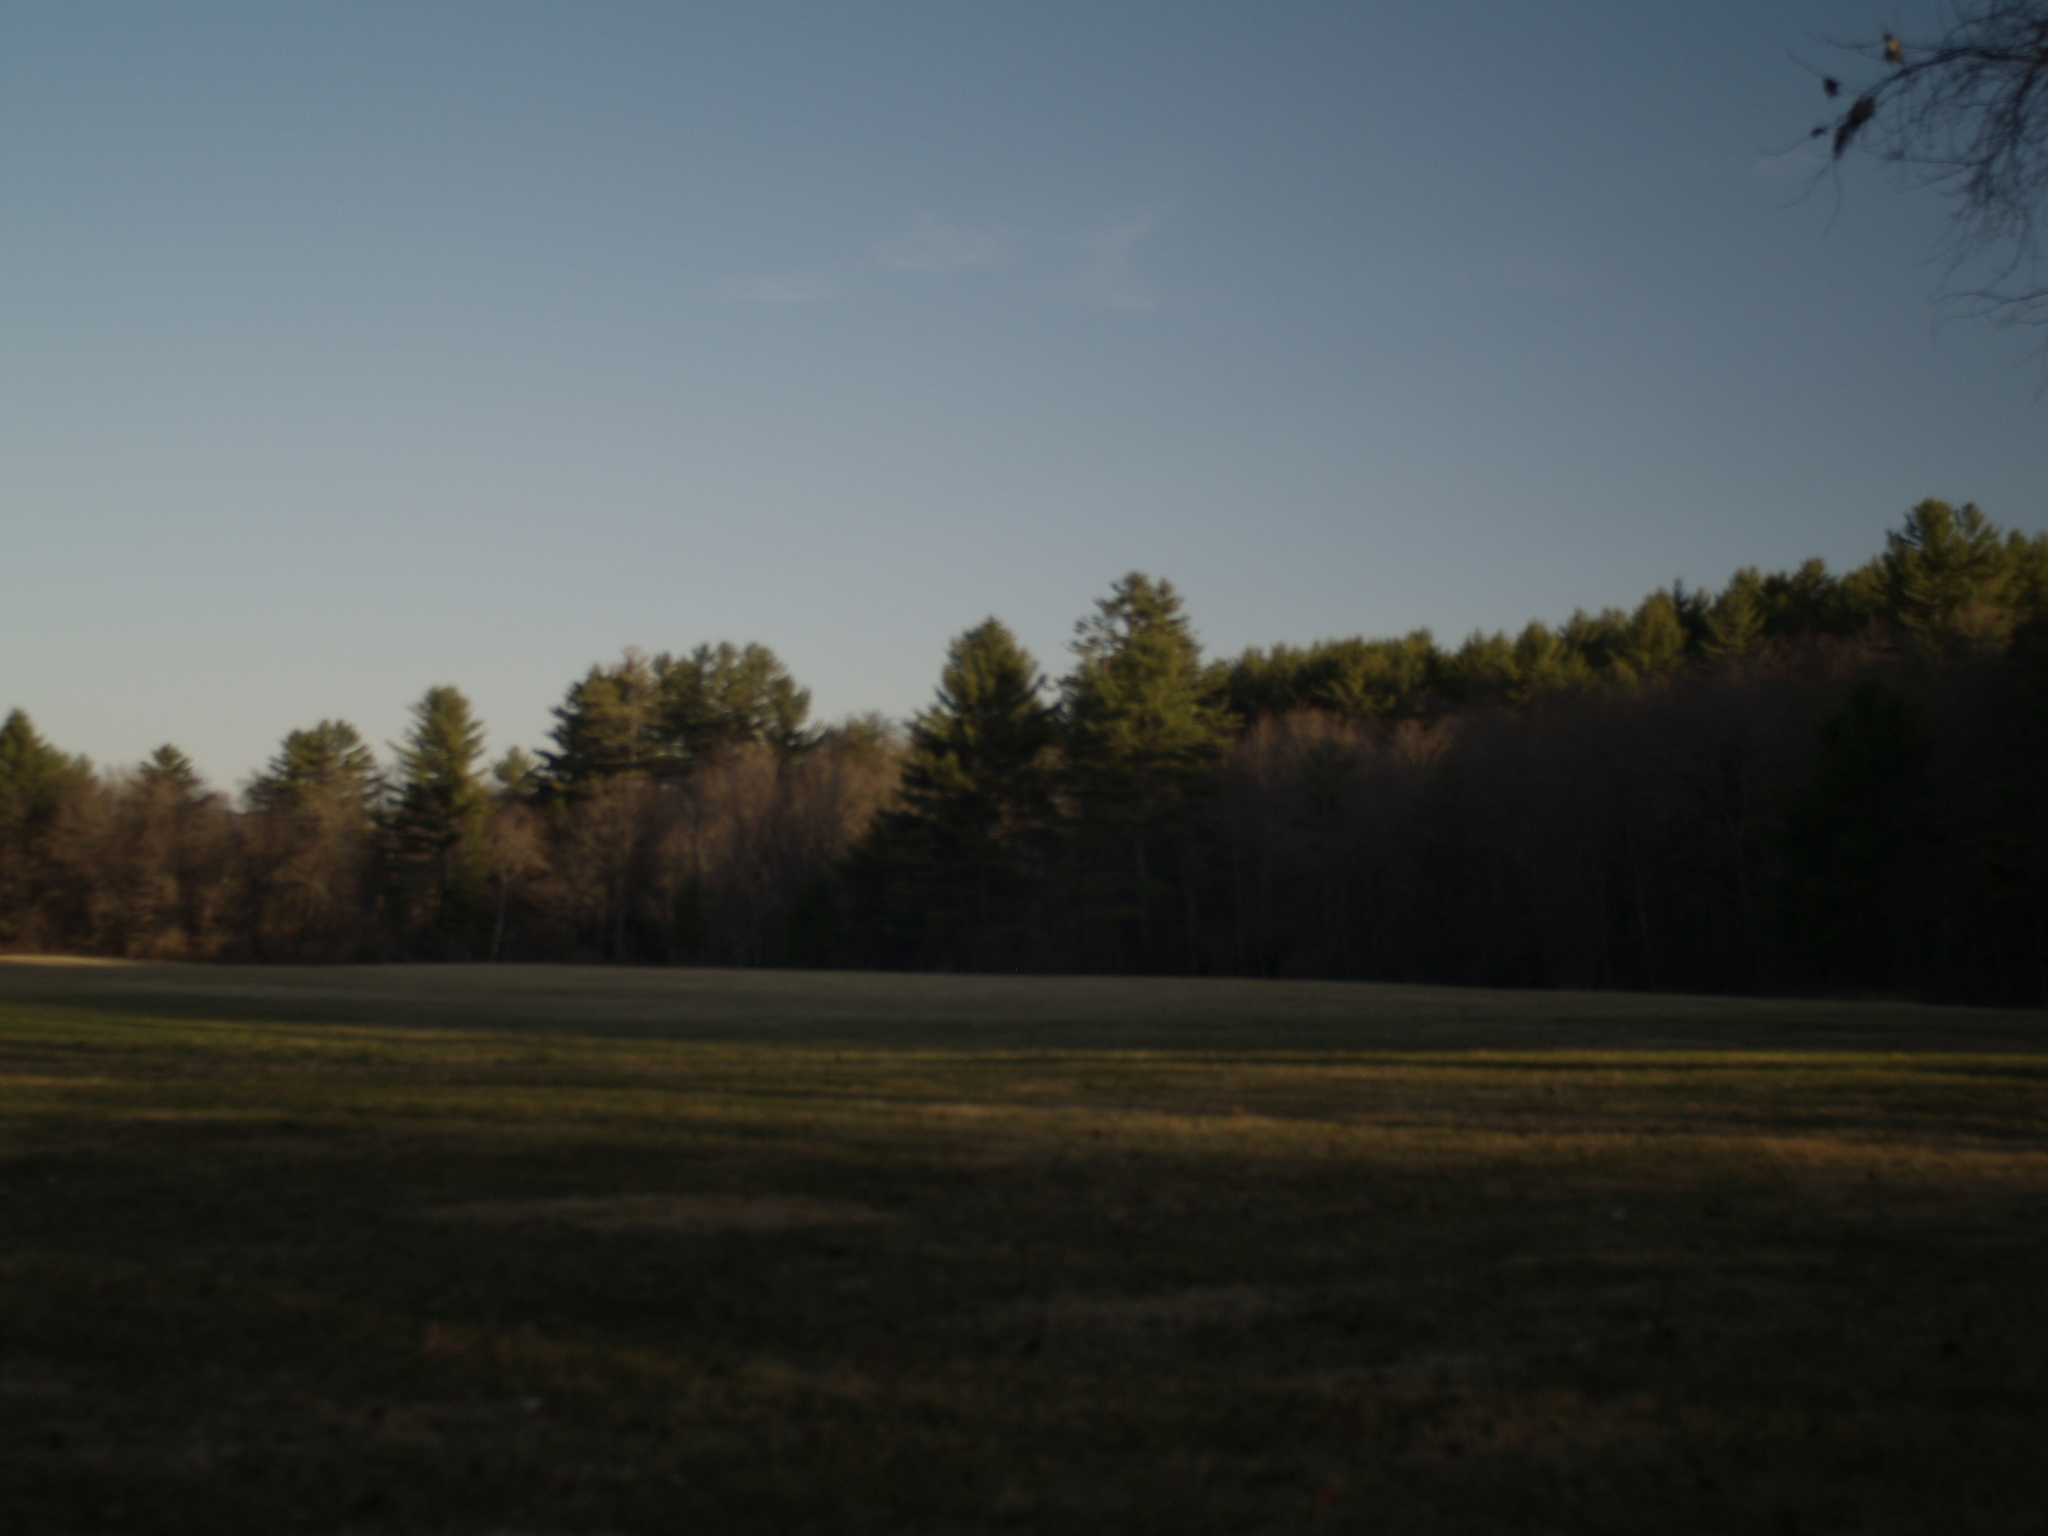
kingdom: Plantae
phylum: Tracheophyta
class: Pinopsida
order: Pinales
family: Pinaceae
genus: Pinus
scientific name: Pinus strobus
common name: Weymouth pine
